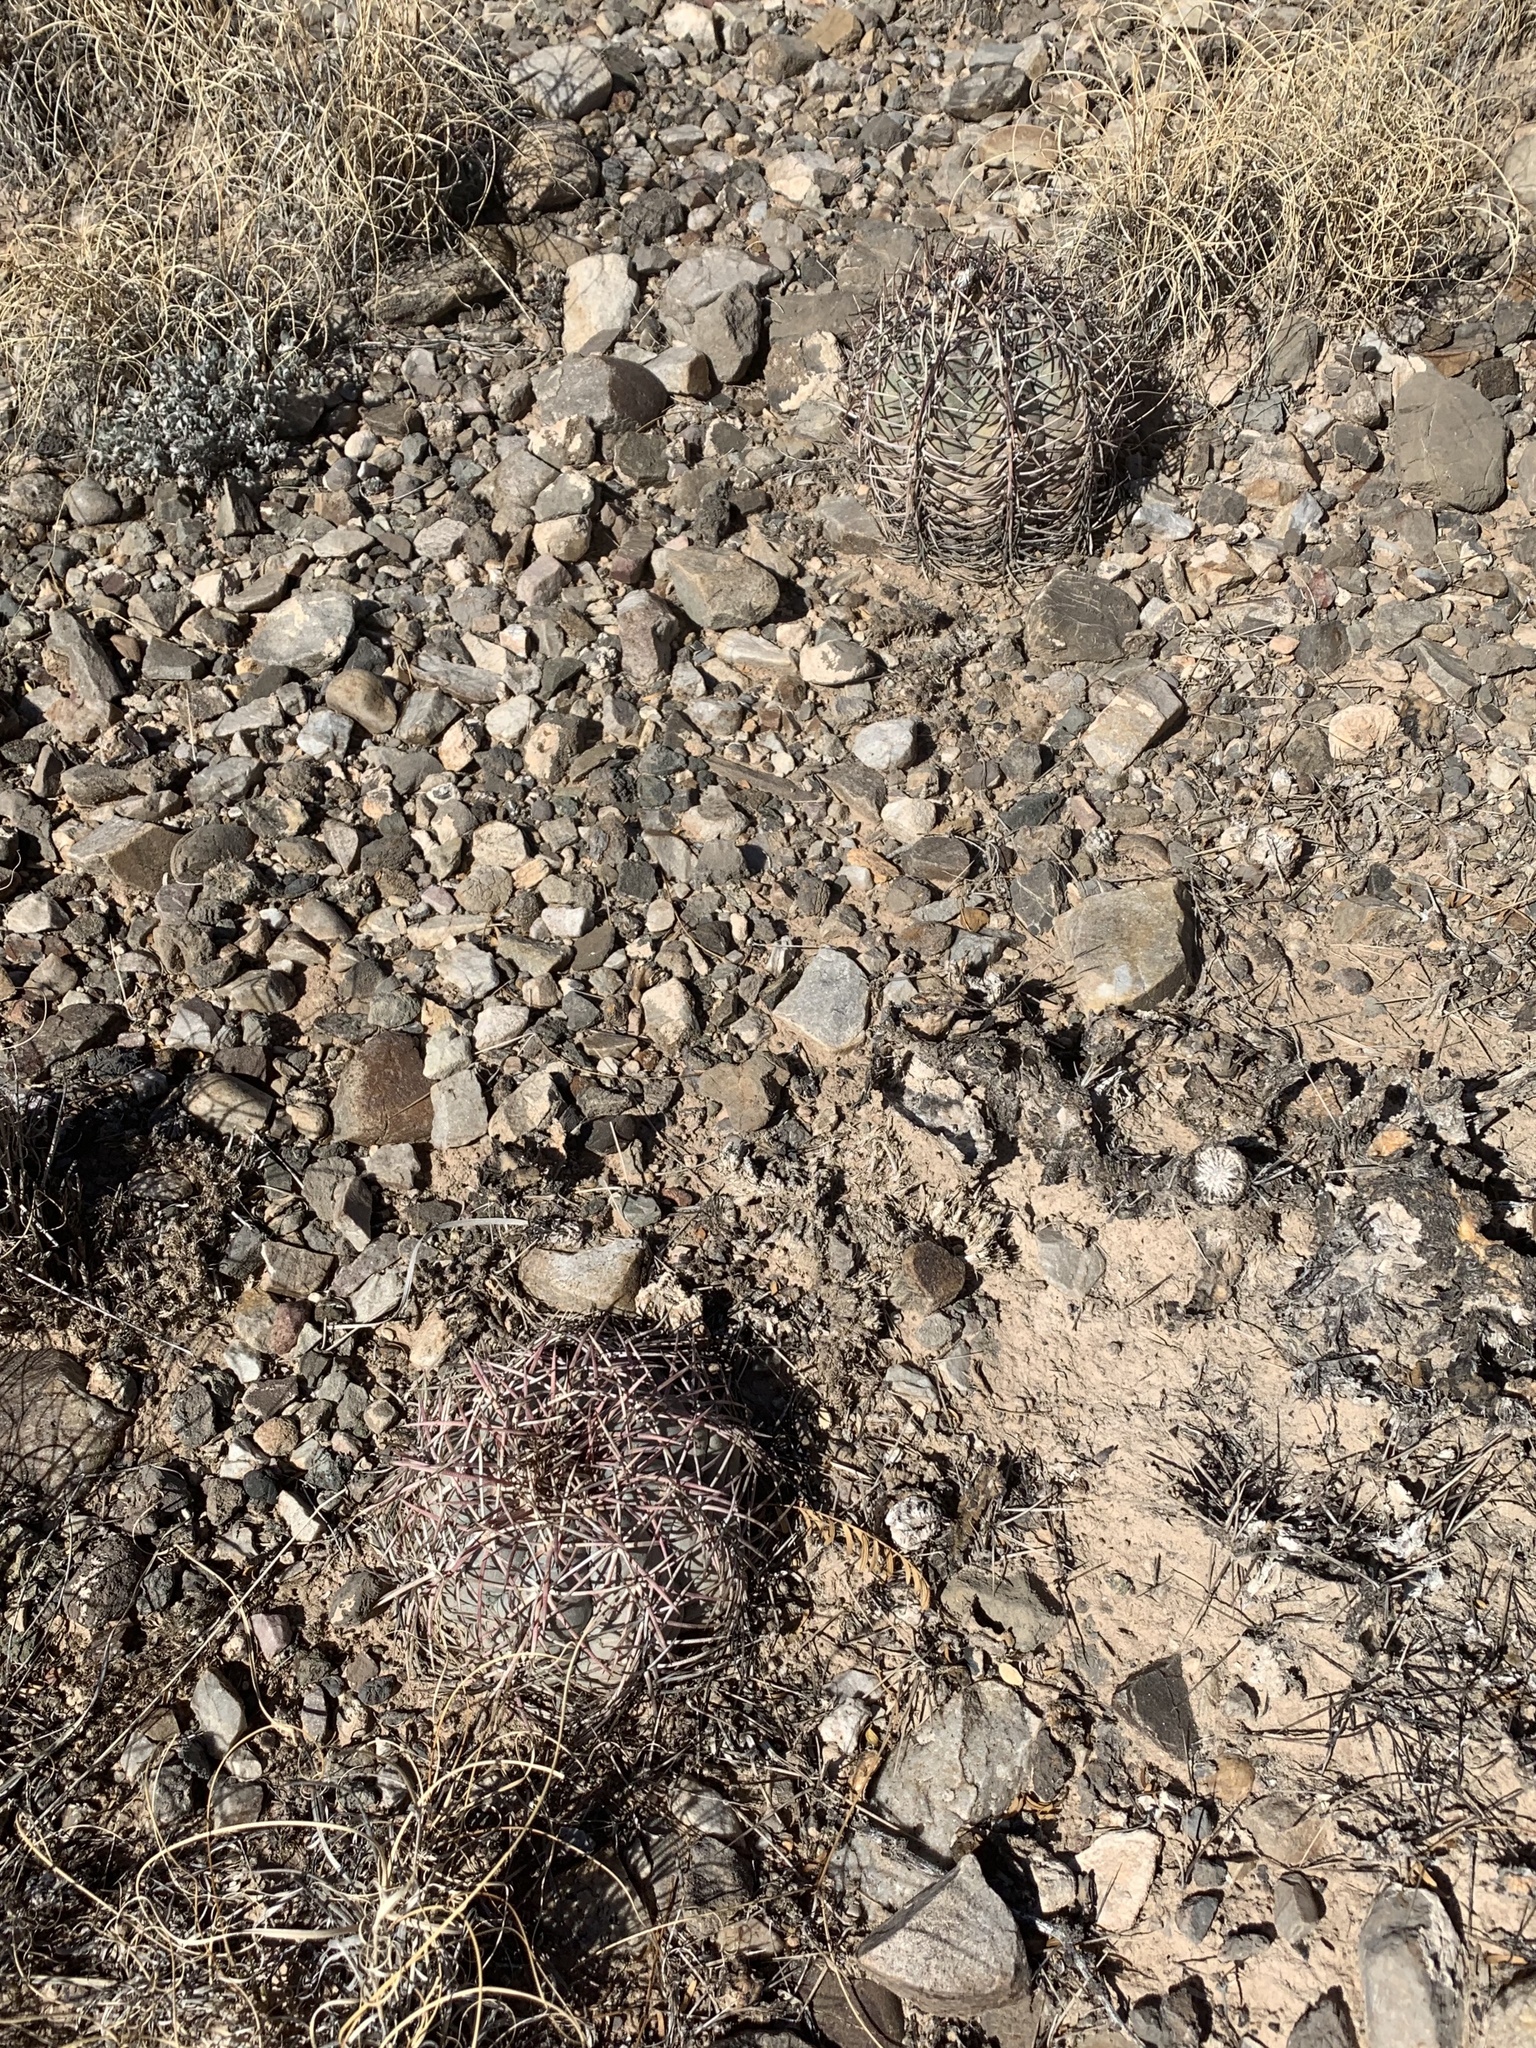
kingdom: Plantae
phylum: Tracheophyta
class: Magnoliopsida
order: Caryophyllales
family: Cactaceae
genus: Echinocactus
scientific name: Echinocactus horizonthalonius
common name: Devilshead
